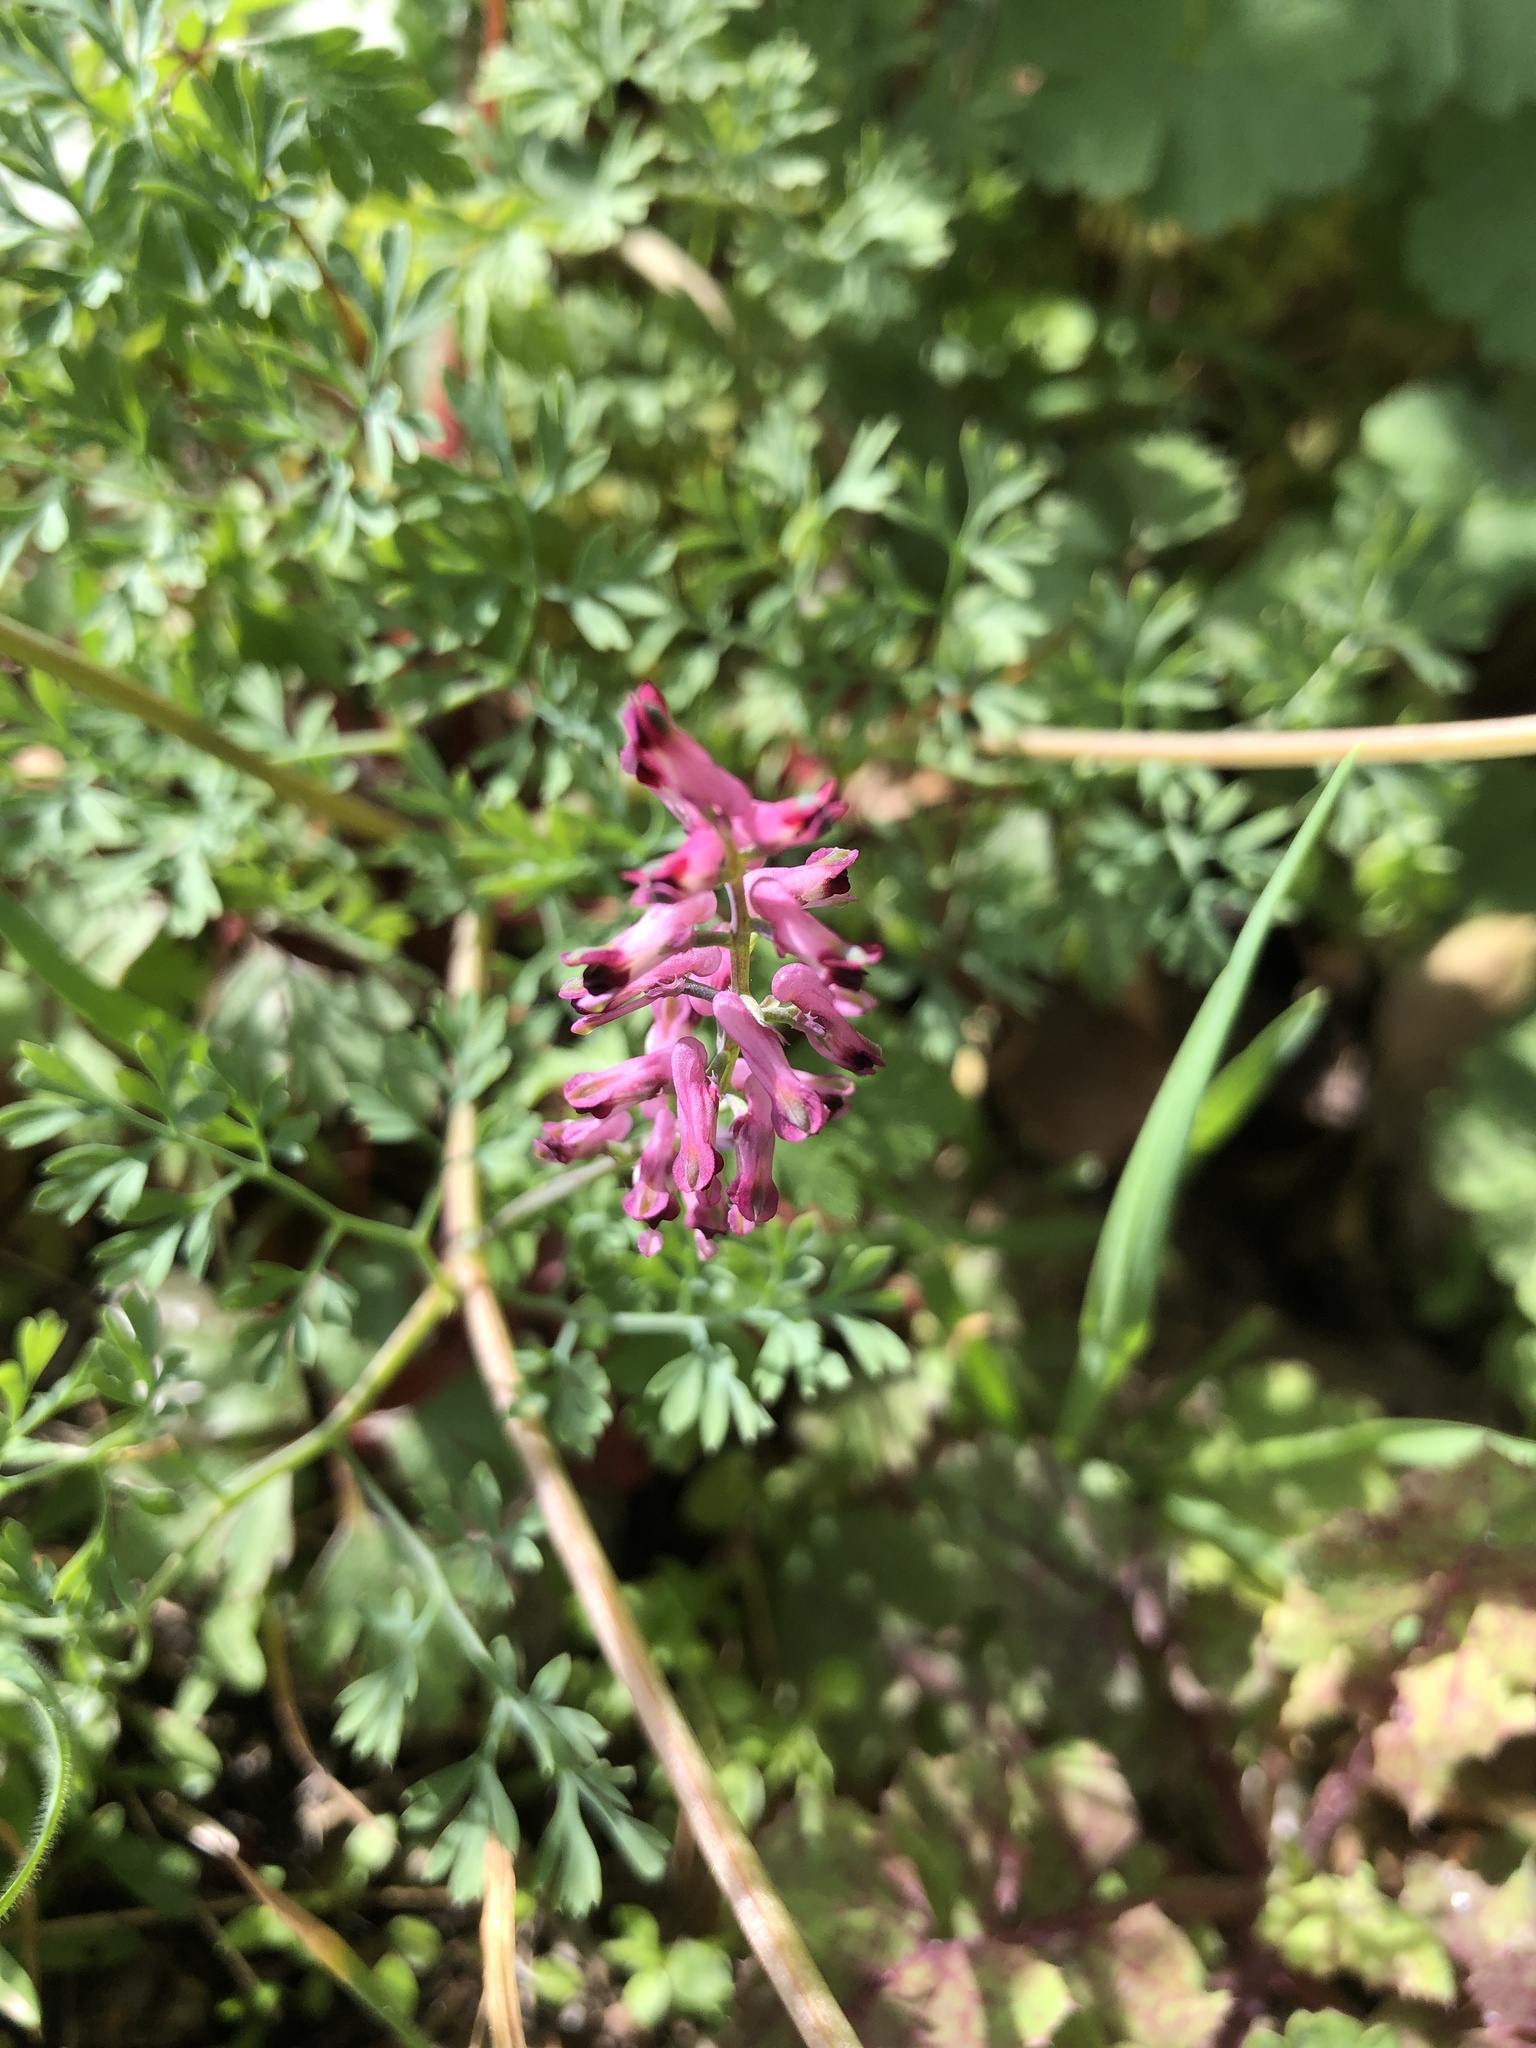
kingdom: Plantae
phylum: Tracheophyta
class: Magnoliopsida
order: Ranunculales
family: Papaveraceae
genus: Fumaria
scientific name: Fumaria officinalis
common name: Common fumitory
